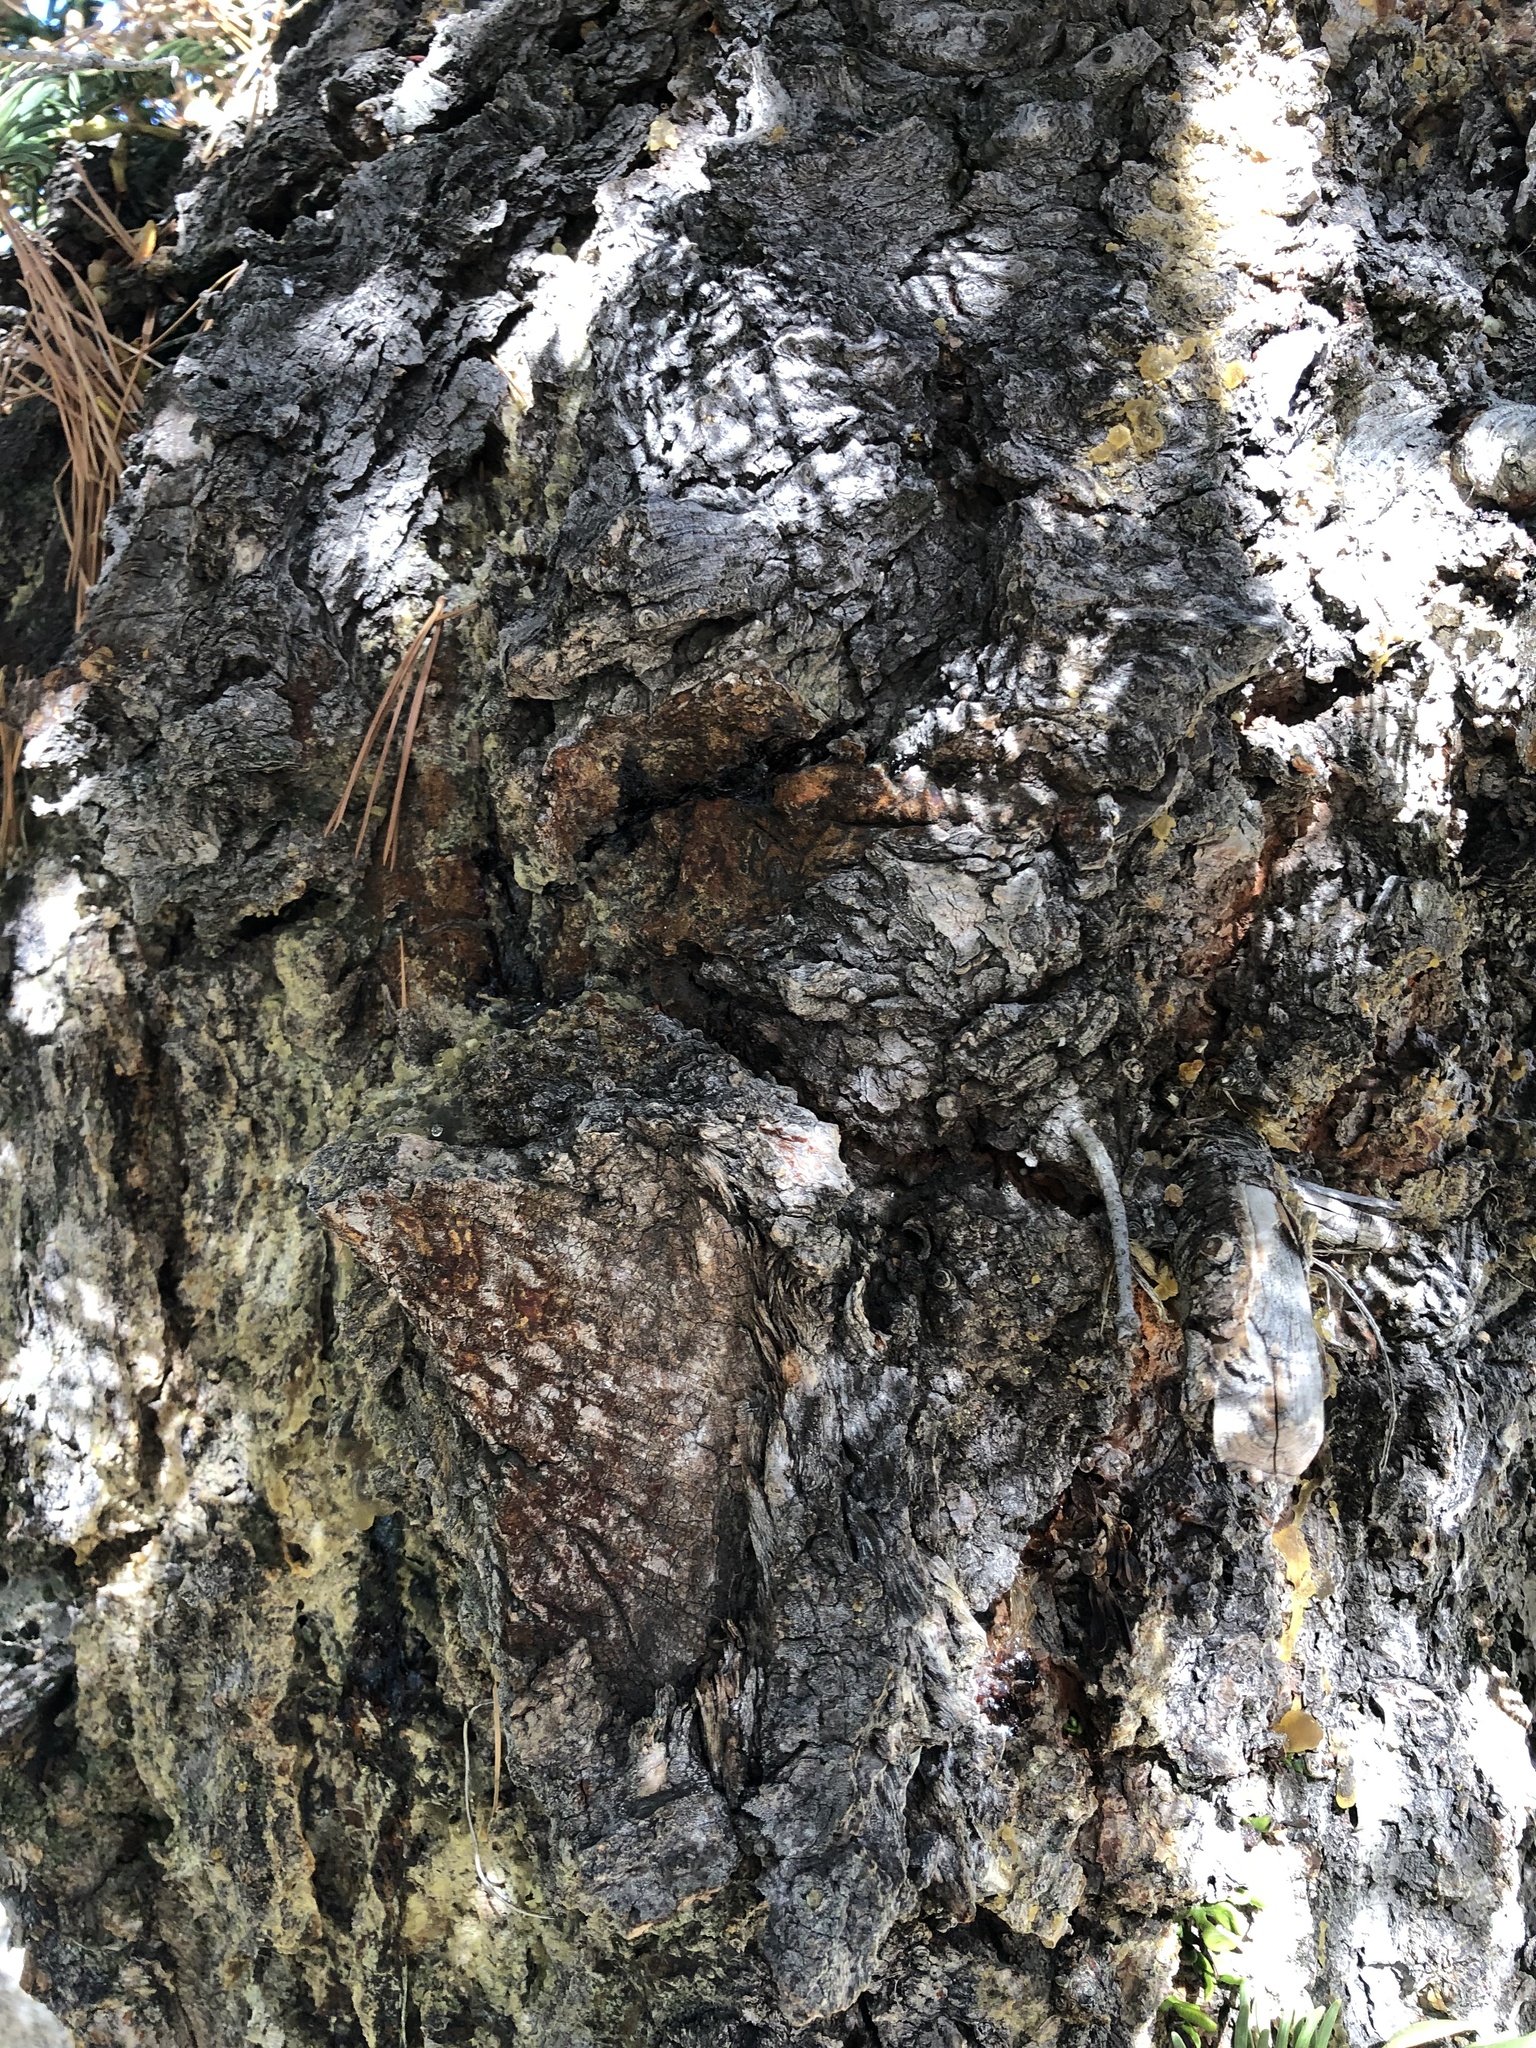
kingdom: Plantae
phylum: Tracheophyta
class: Pinopsida
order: Pinales
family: Pinaceae
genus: Abies
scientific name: Abies concolor
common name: Colorado fir
